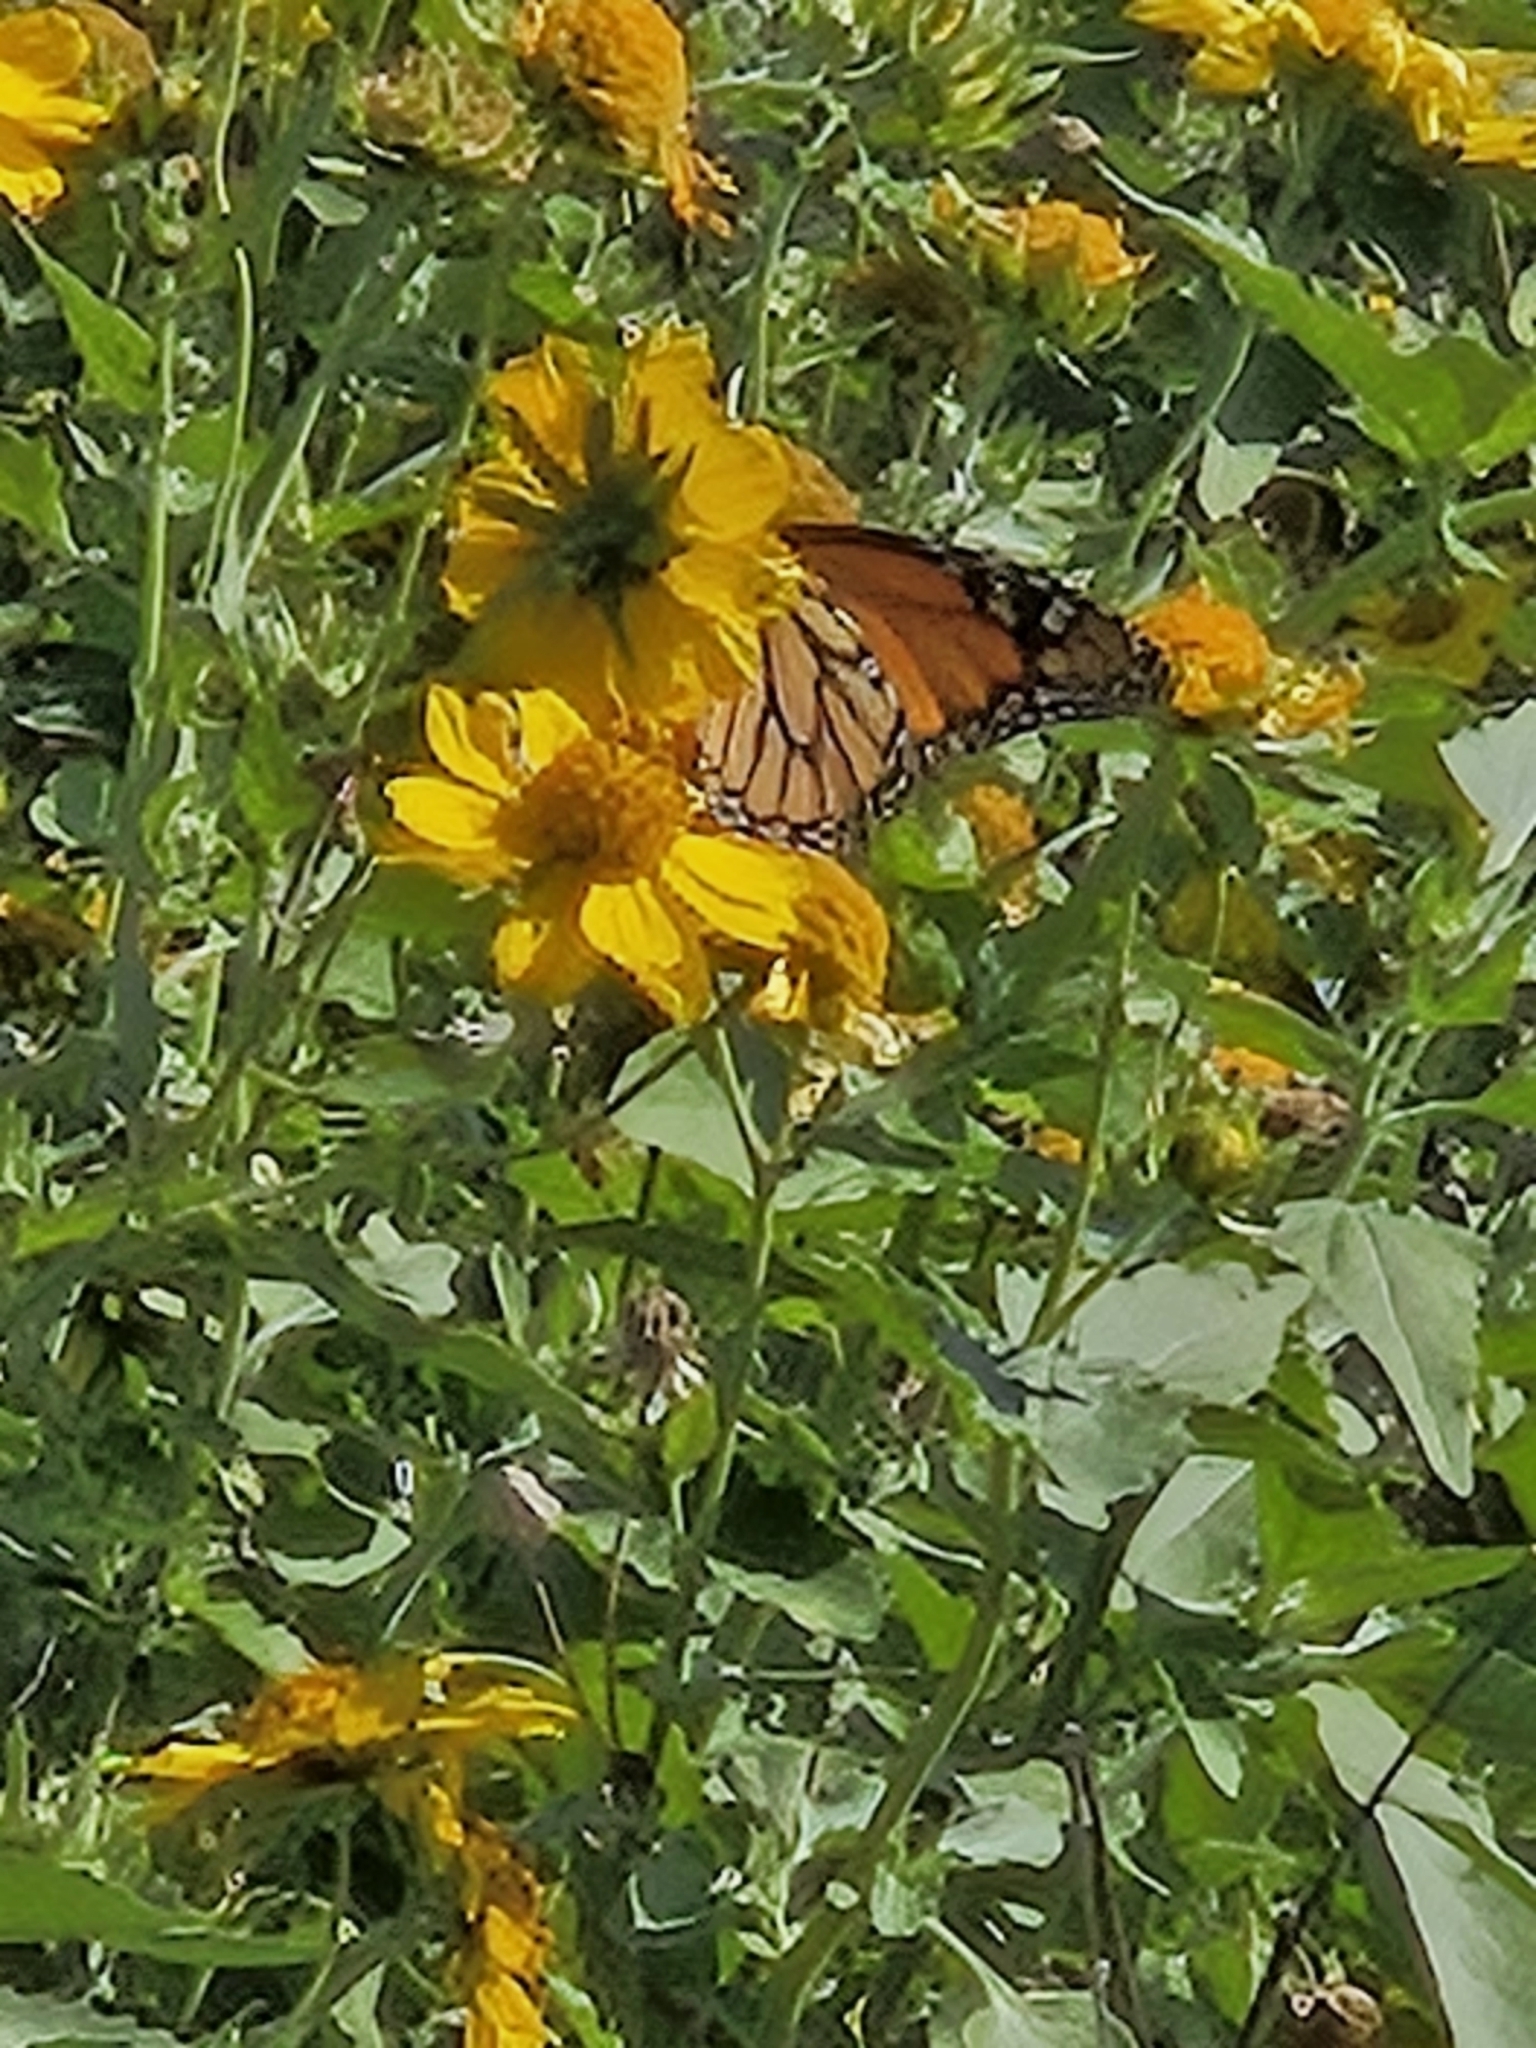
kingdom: Animalia
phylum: Arthropoda
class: Insecta
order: Lepidoptera
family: Nymphalidae
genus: Danaus
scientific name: Danaus plexippus
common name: Monarch
